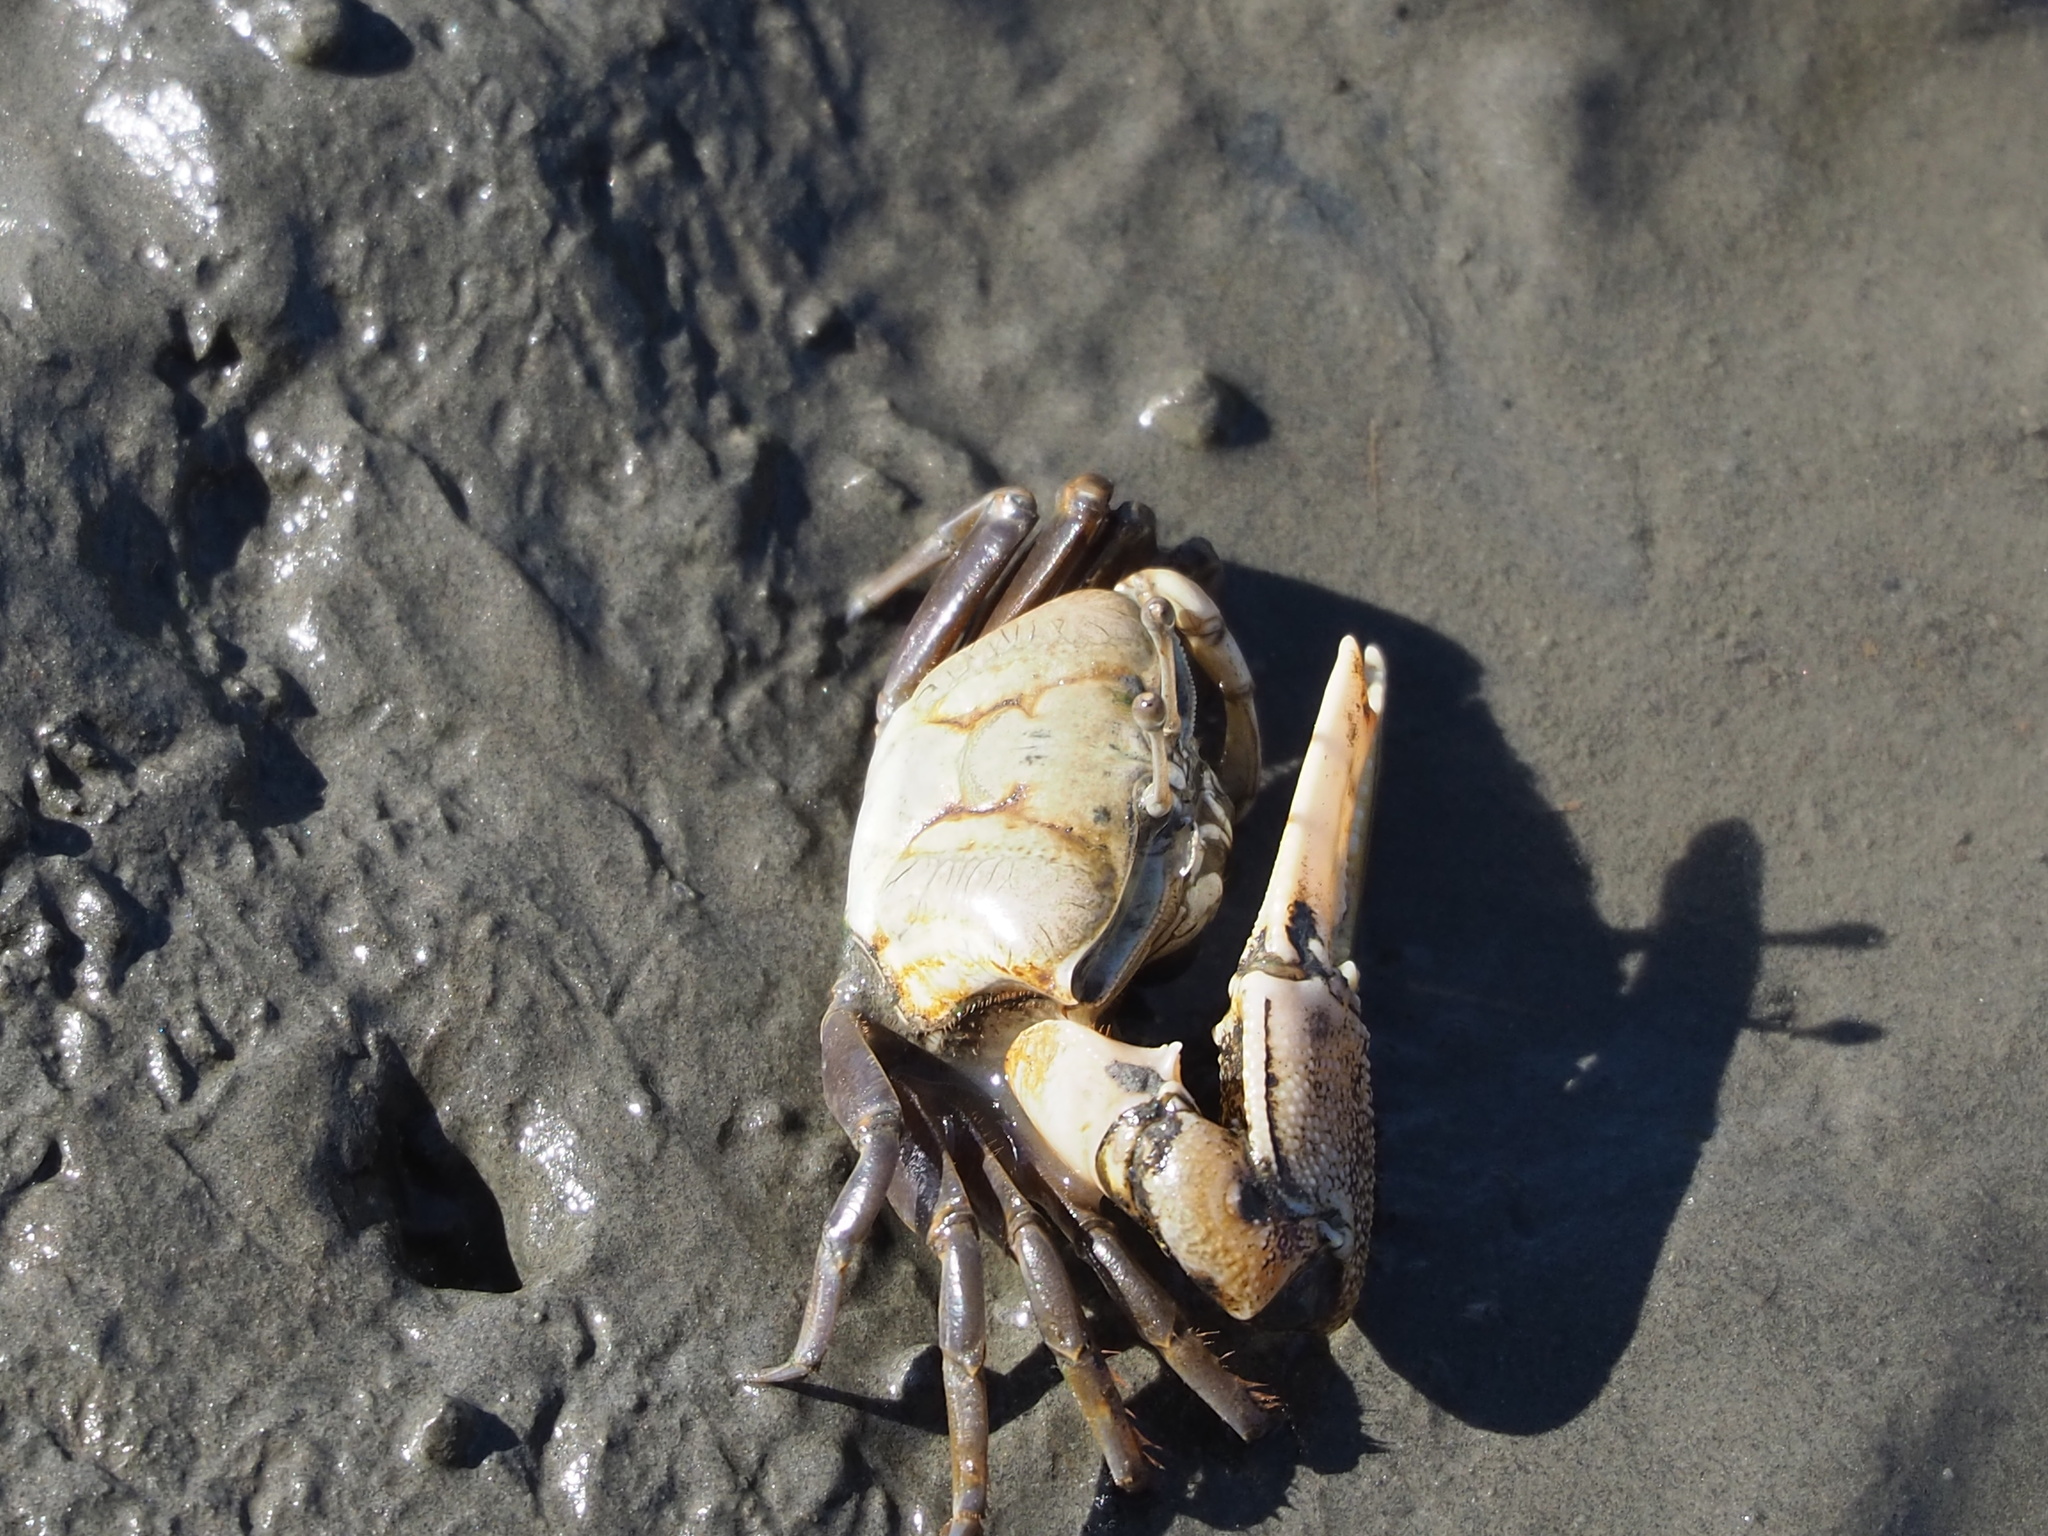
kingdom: Animalia
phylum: Arthropoda
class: Malacostraca
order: Decapoda
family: Ocypodidae
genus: Gelasimus
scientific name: Gelasimus borealis
